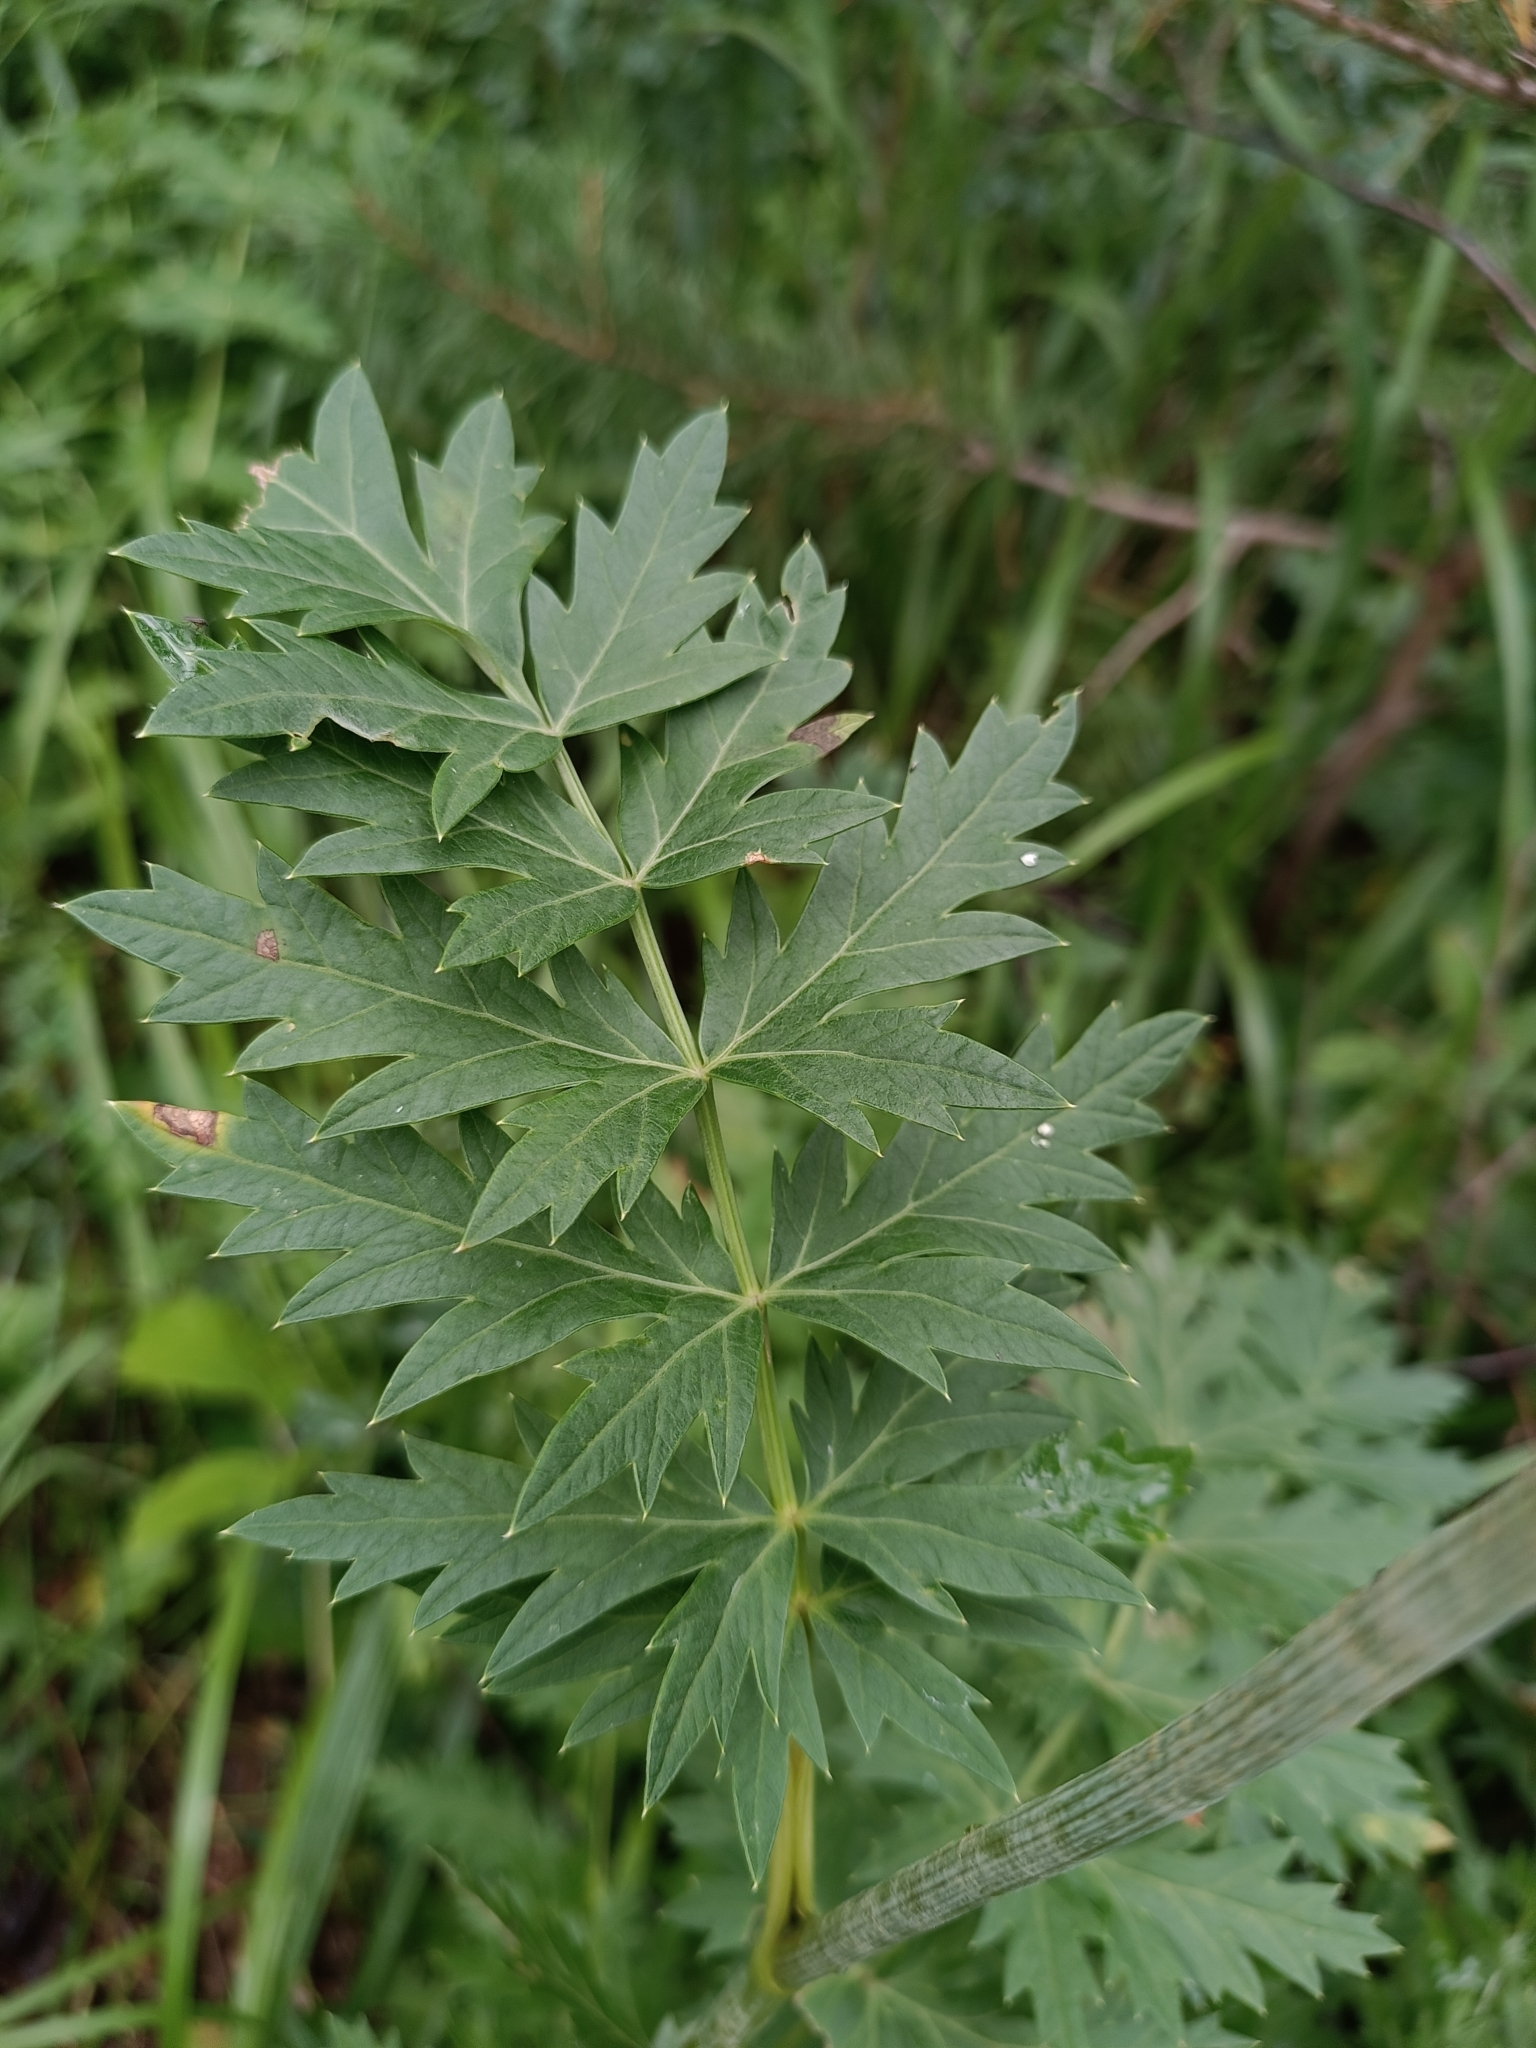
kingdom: Plantae
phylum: Tracheophyta
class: Magnoliopsida
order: Apiales
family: Apiaceae
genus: Seseli
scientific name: Seseli krylovii
